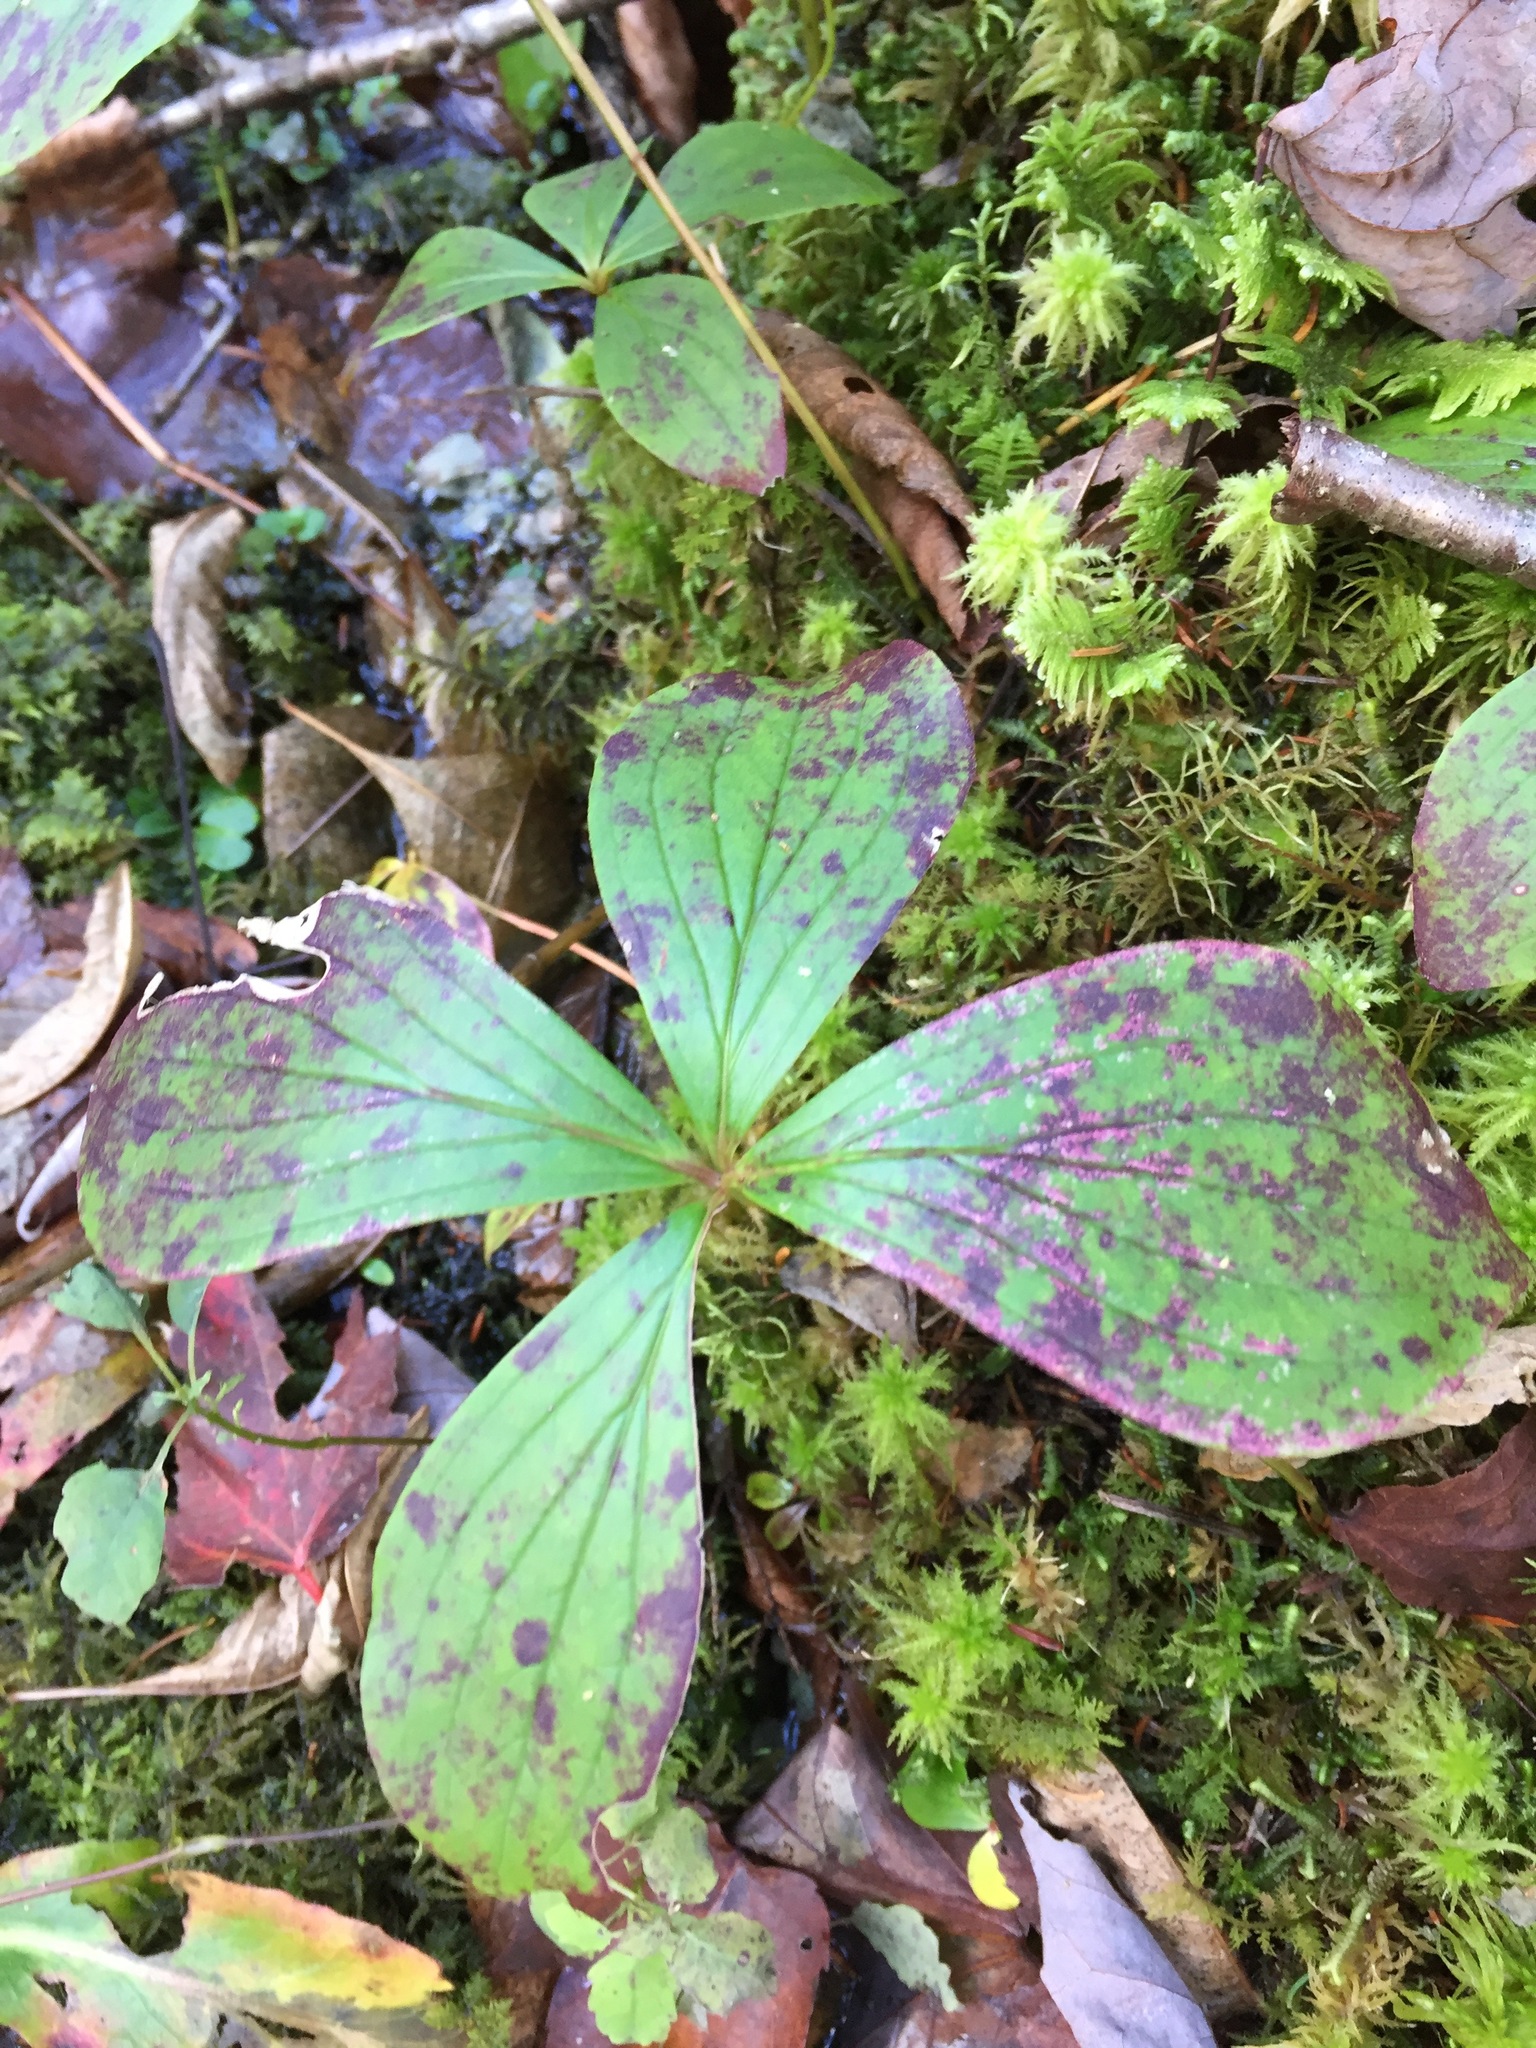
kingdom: Plantae
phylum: Tracheophyta
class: Magnoliopsida
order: Cornales
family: Cornaceae
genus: Cornus
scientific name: Cornus canadensis
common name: Creeping dogwood
